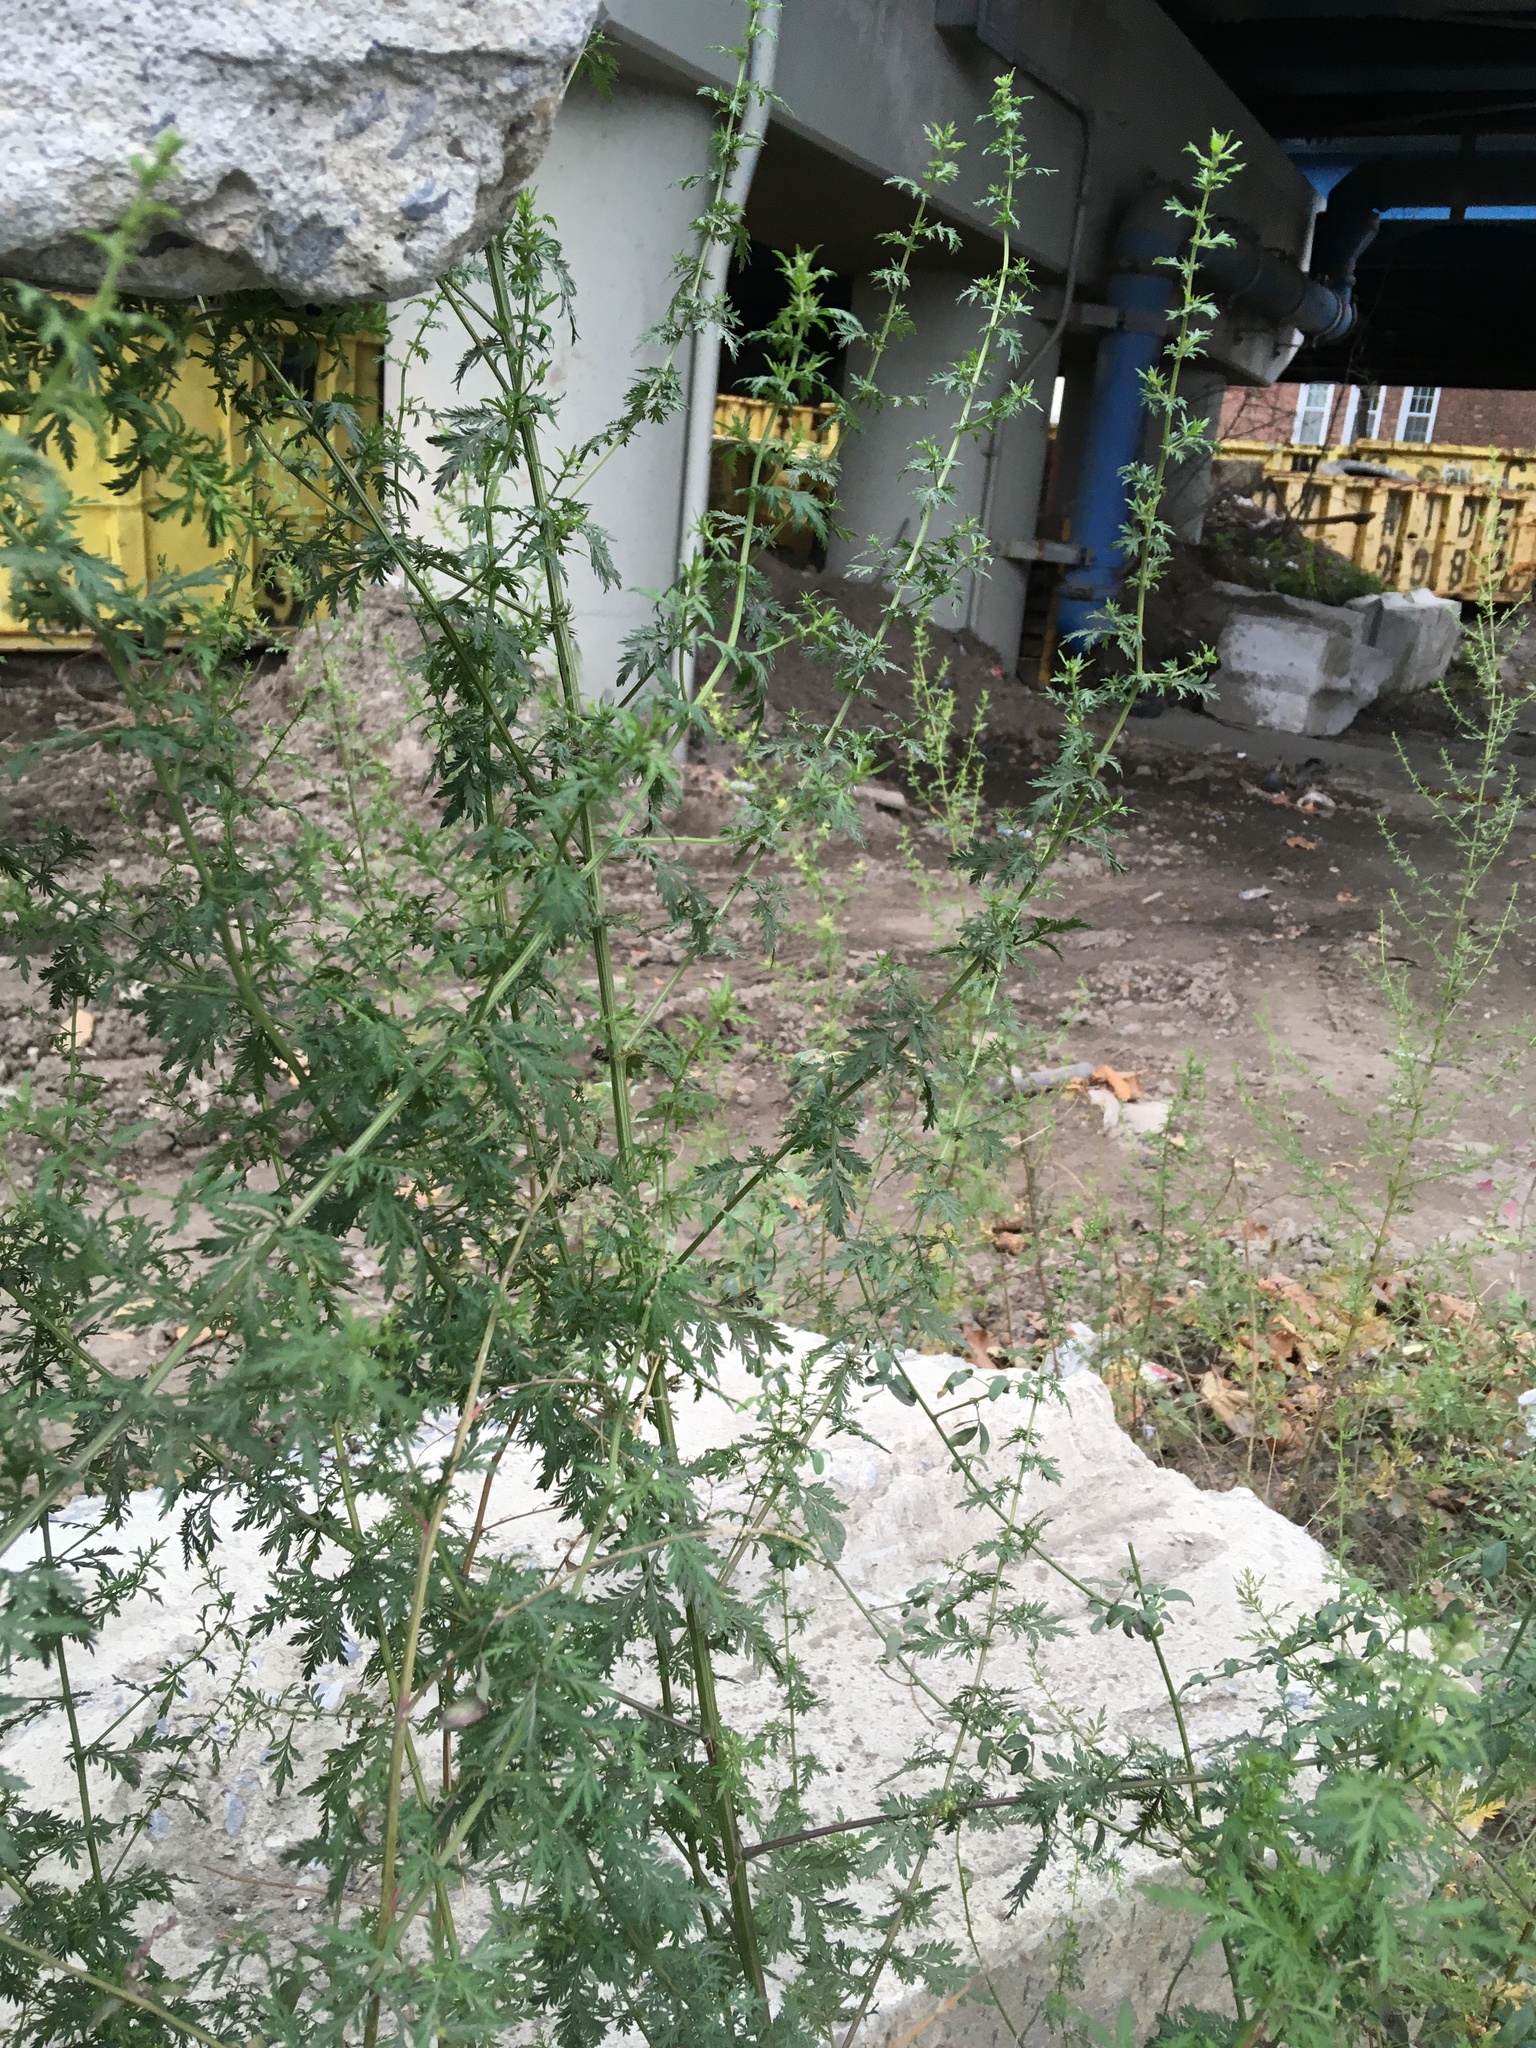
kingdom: Plantae
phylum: Tracheophyta
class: Magnoliopsida
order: Asterales
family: Asteraceae
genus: Artemisia
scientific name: Artemisia annua
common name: Sweet sagewort
